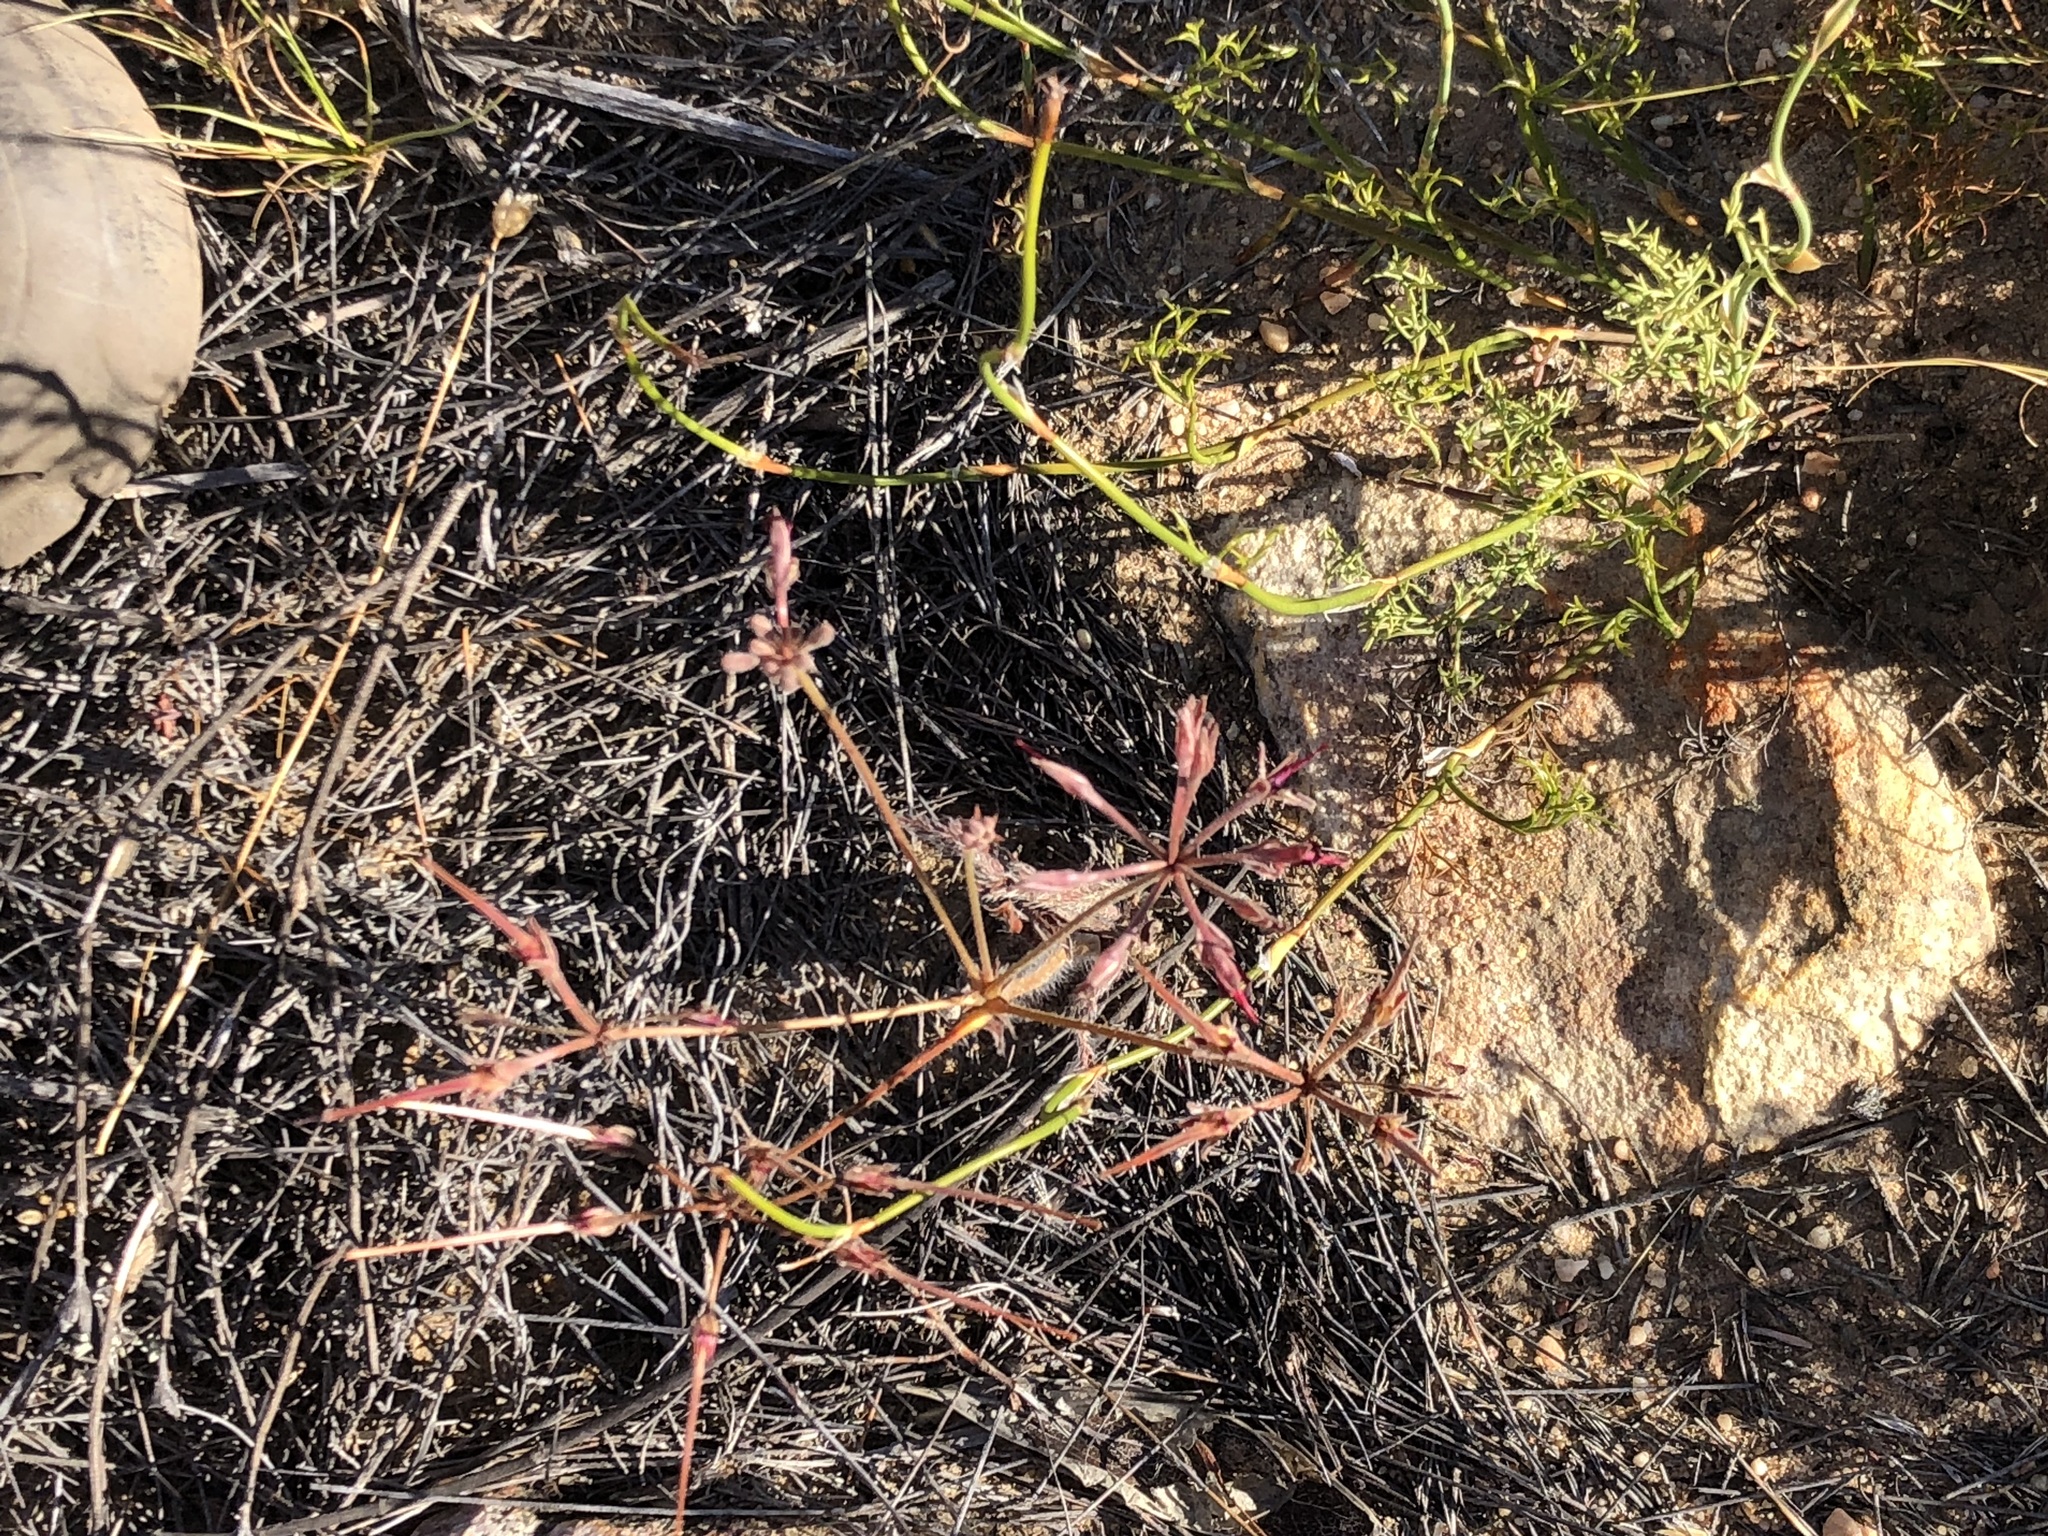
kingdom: Plantae
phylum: Tracheophyta
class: Magnoliopsida
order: Geraniales
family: Geraniaceae
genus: Pelargonium
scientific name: Pelargonium ellaphieae
